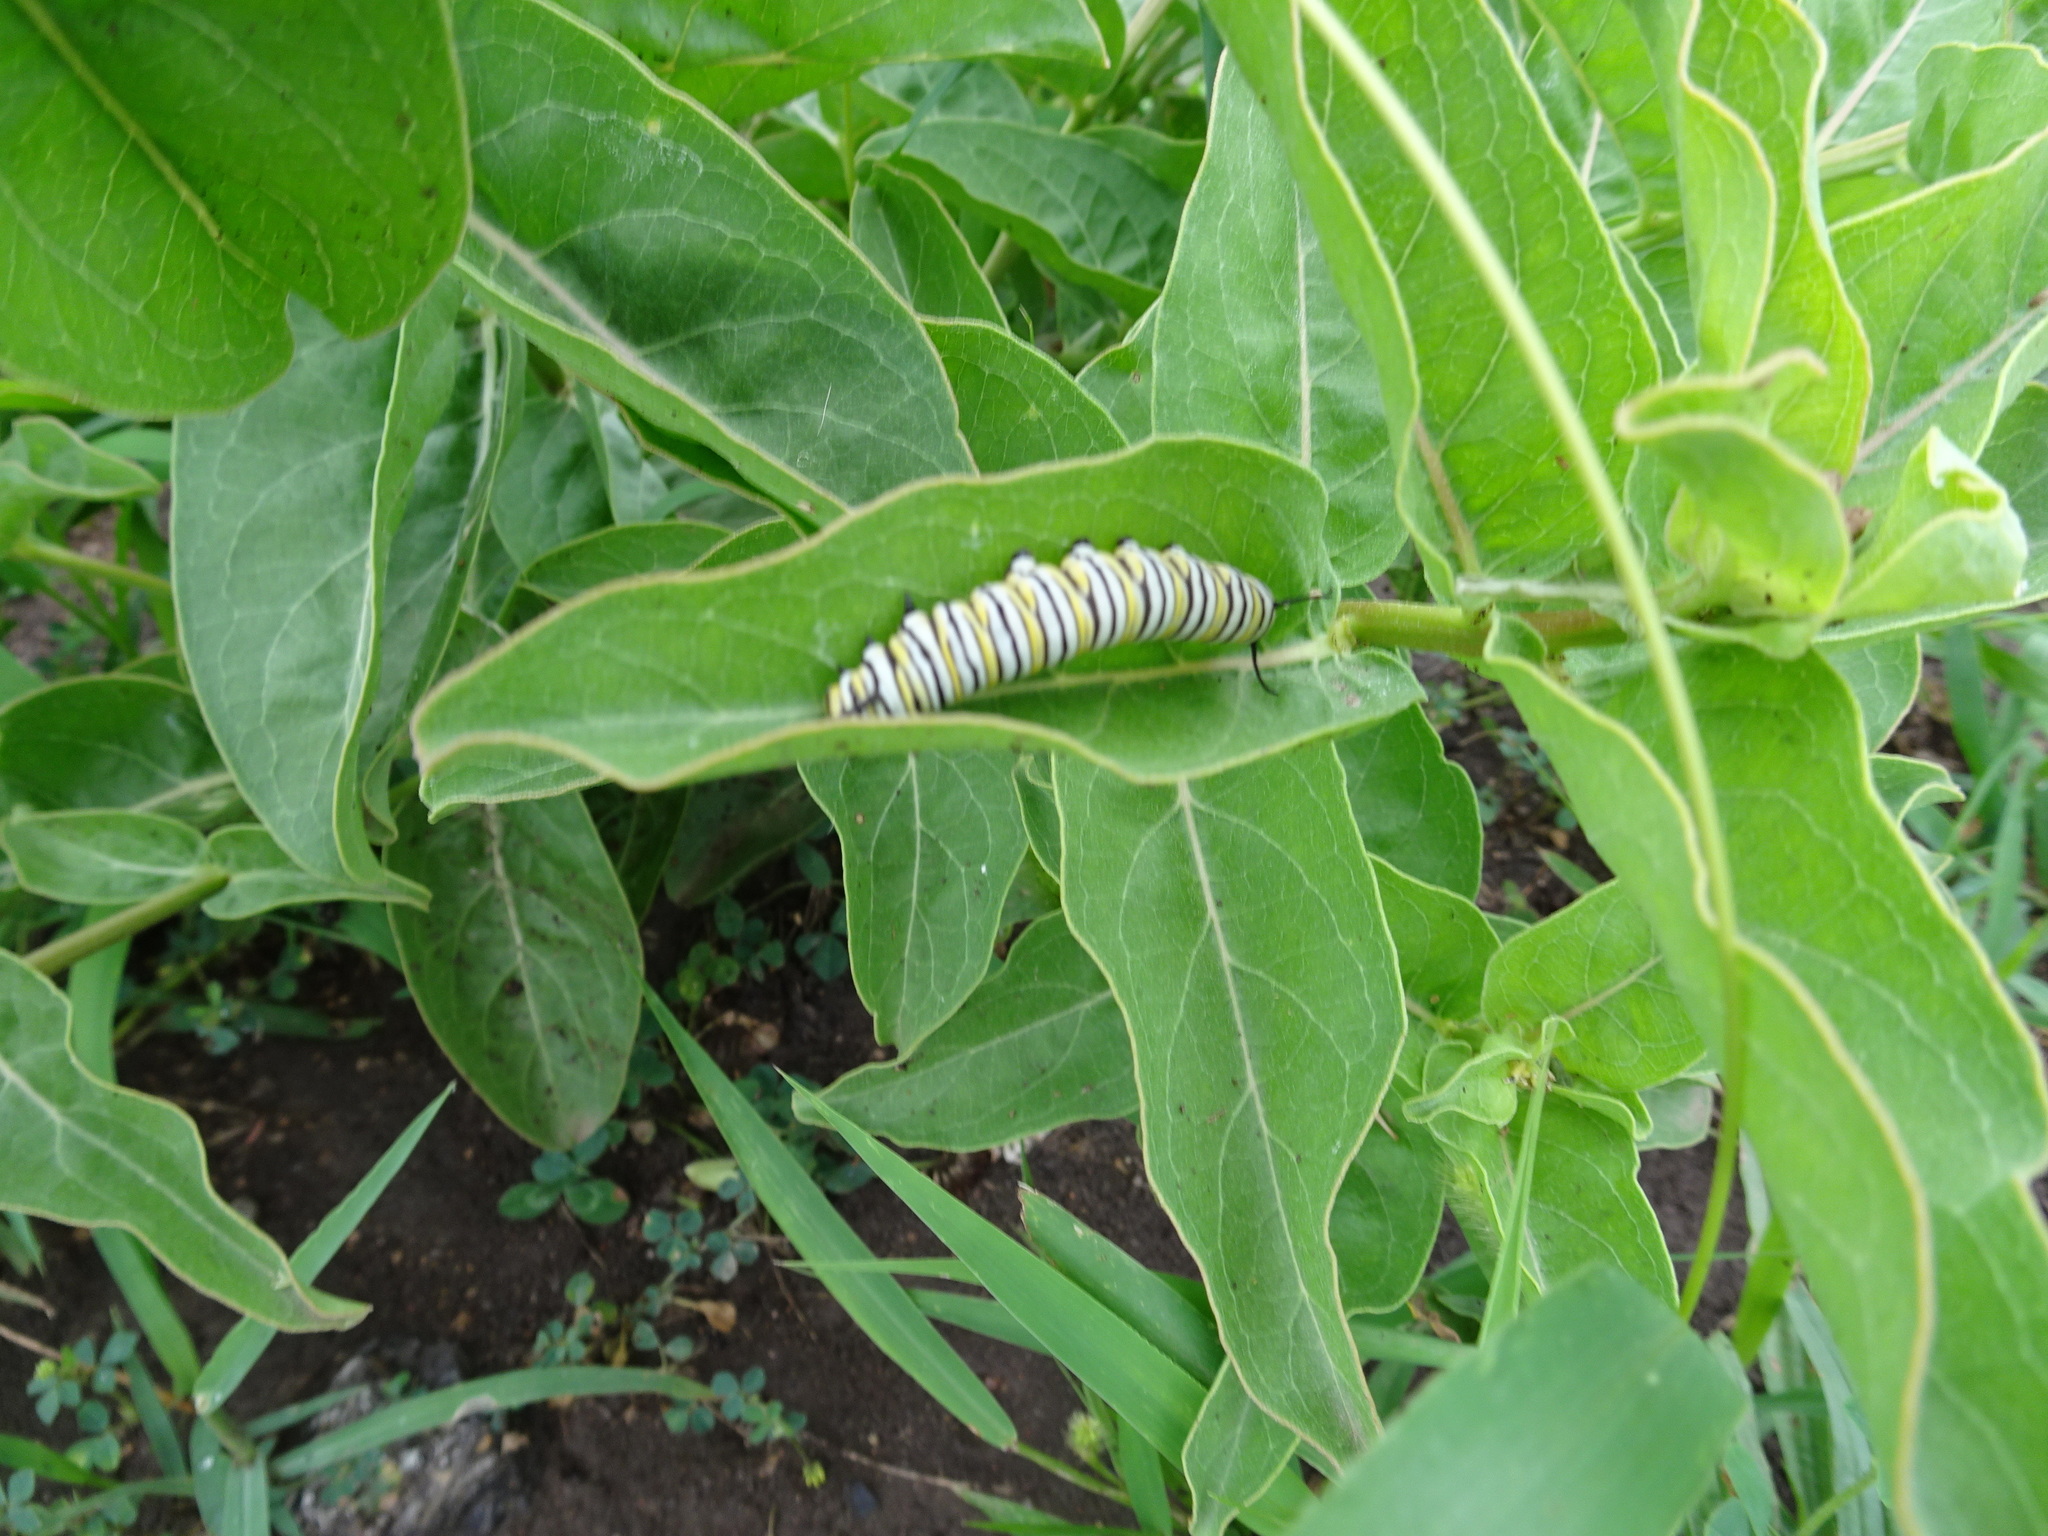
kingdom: Animalia
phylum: Arthropoda
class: Insecta
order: Lepidoptera
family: Nymphalidae
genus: Danaus
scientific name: Danaus plexippus
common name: Monarch
